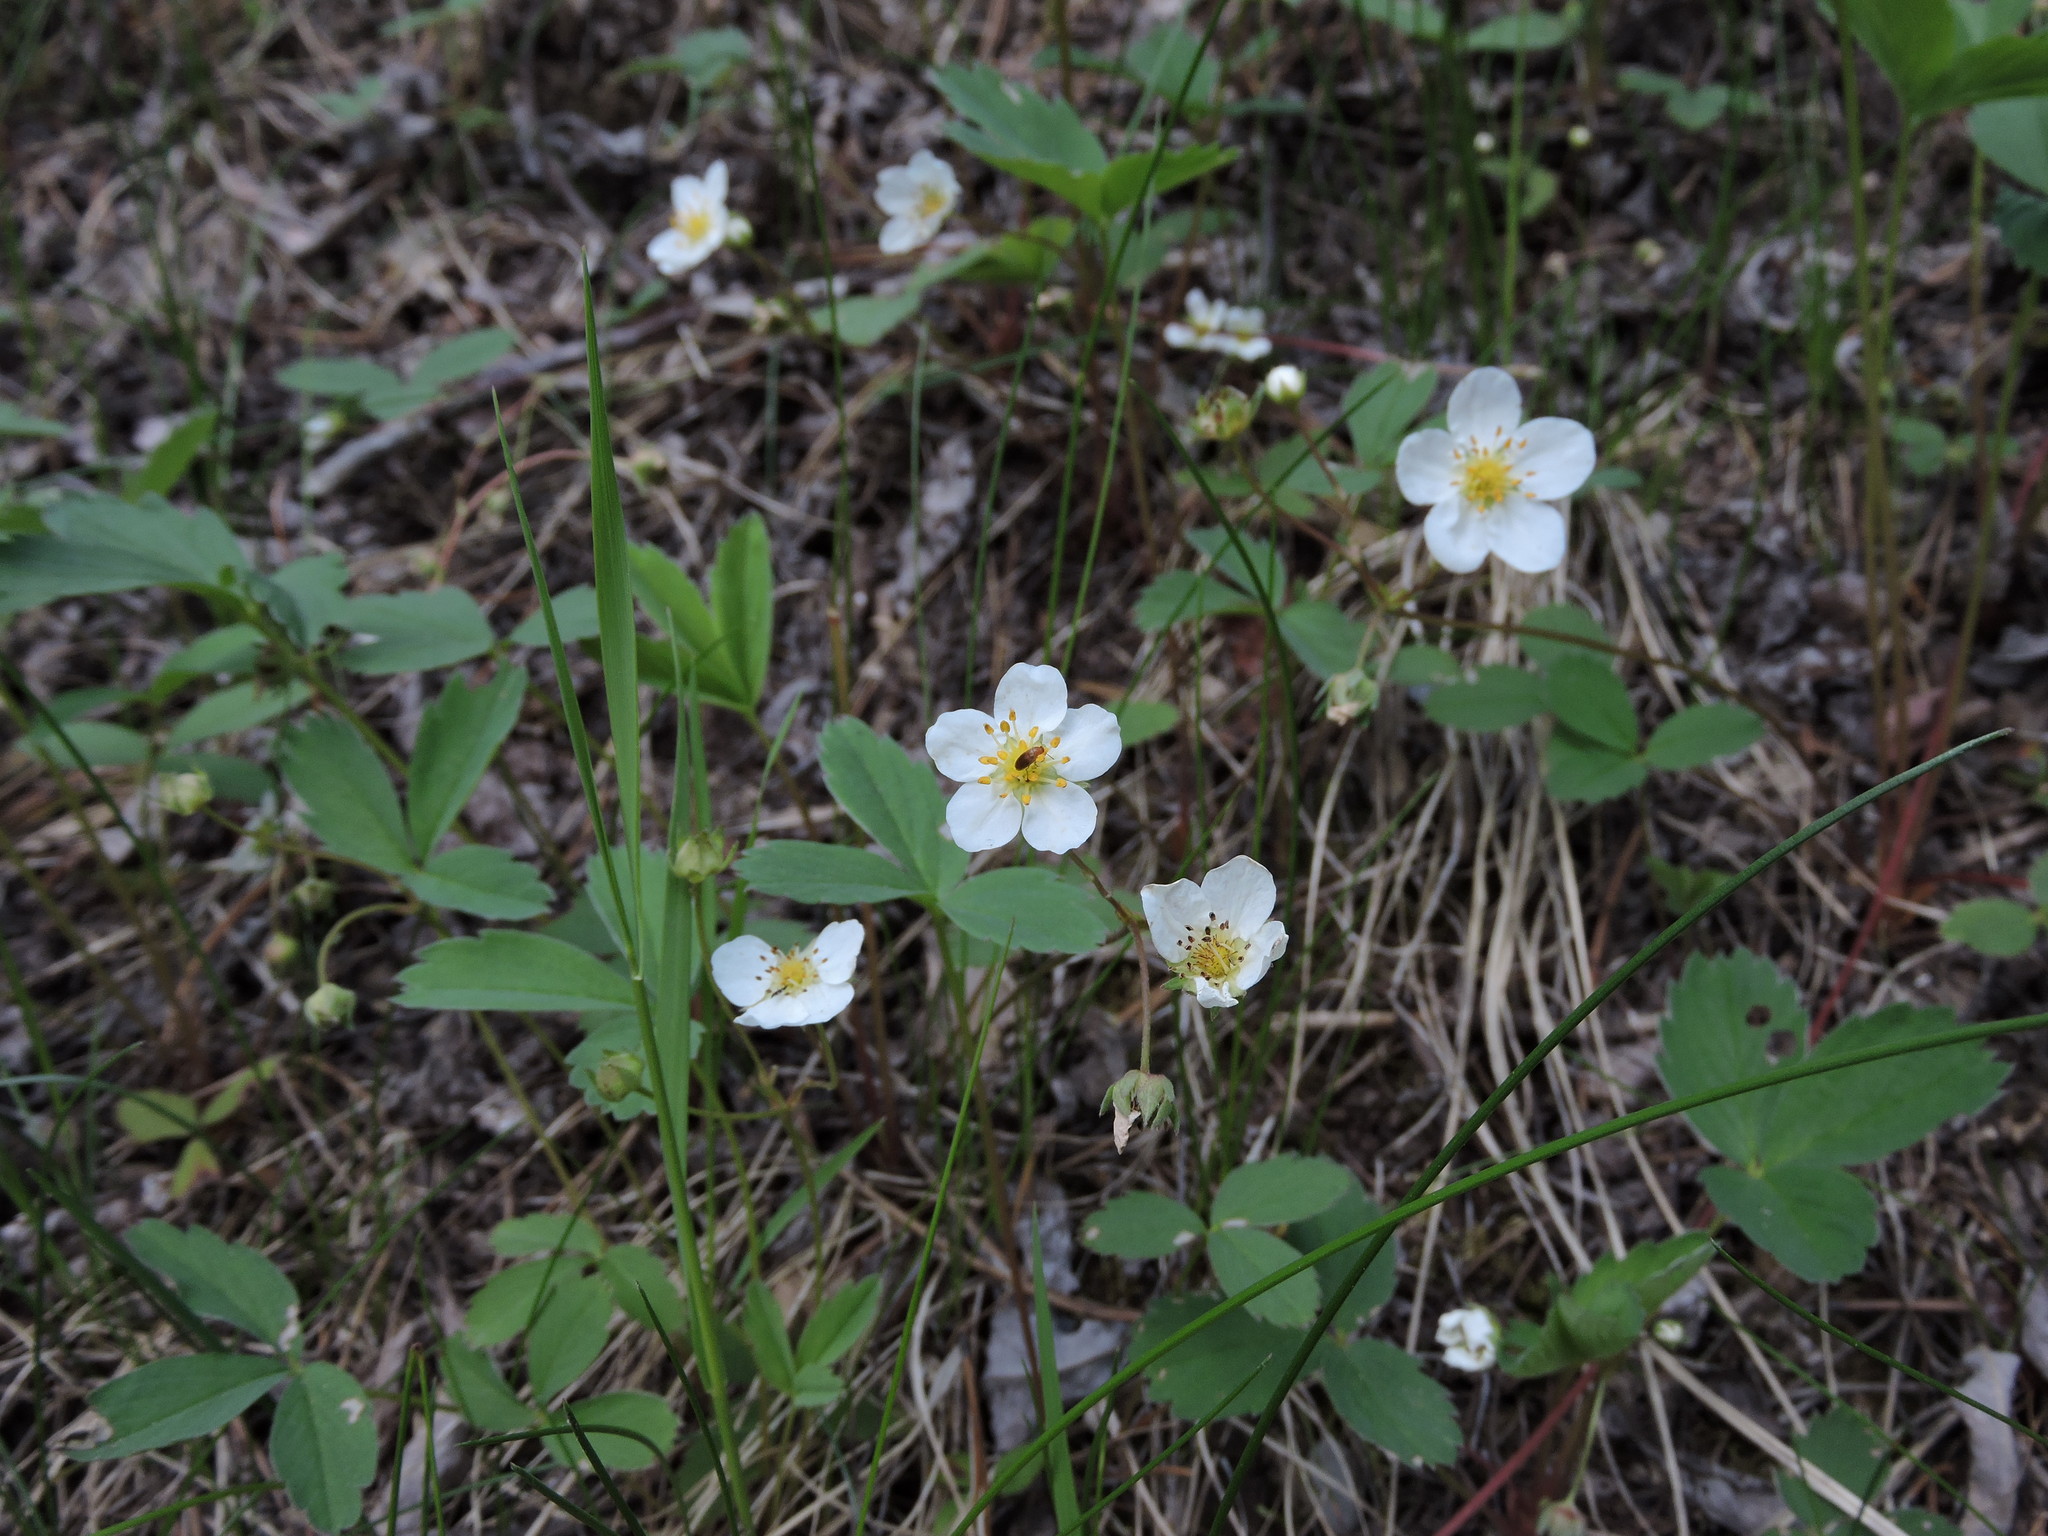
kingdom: Plantae
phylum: Tracheophyta
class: Magnoliopsida
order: Rosales
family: Rosaceae
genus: Fragaria
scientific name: Fragaria virginiana
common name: Thickleaved wild strawberry
